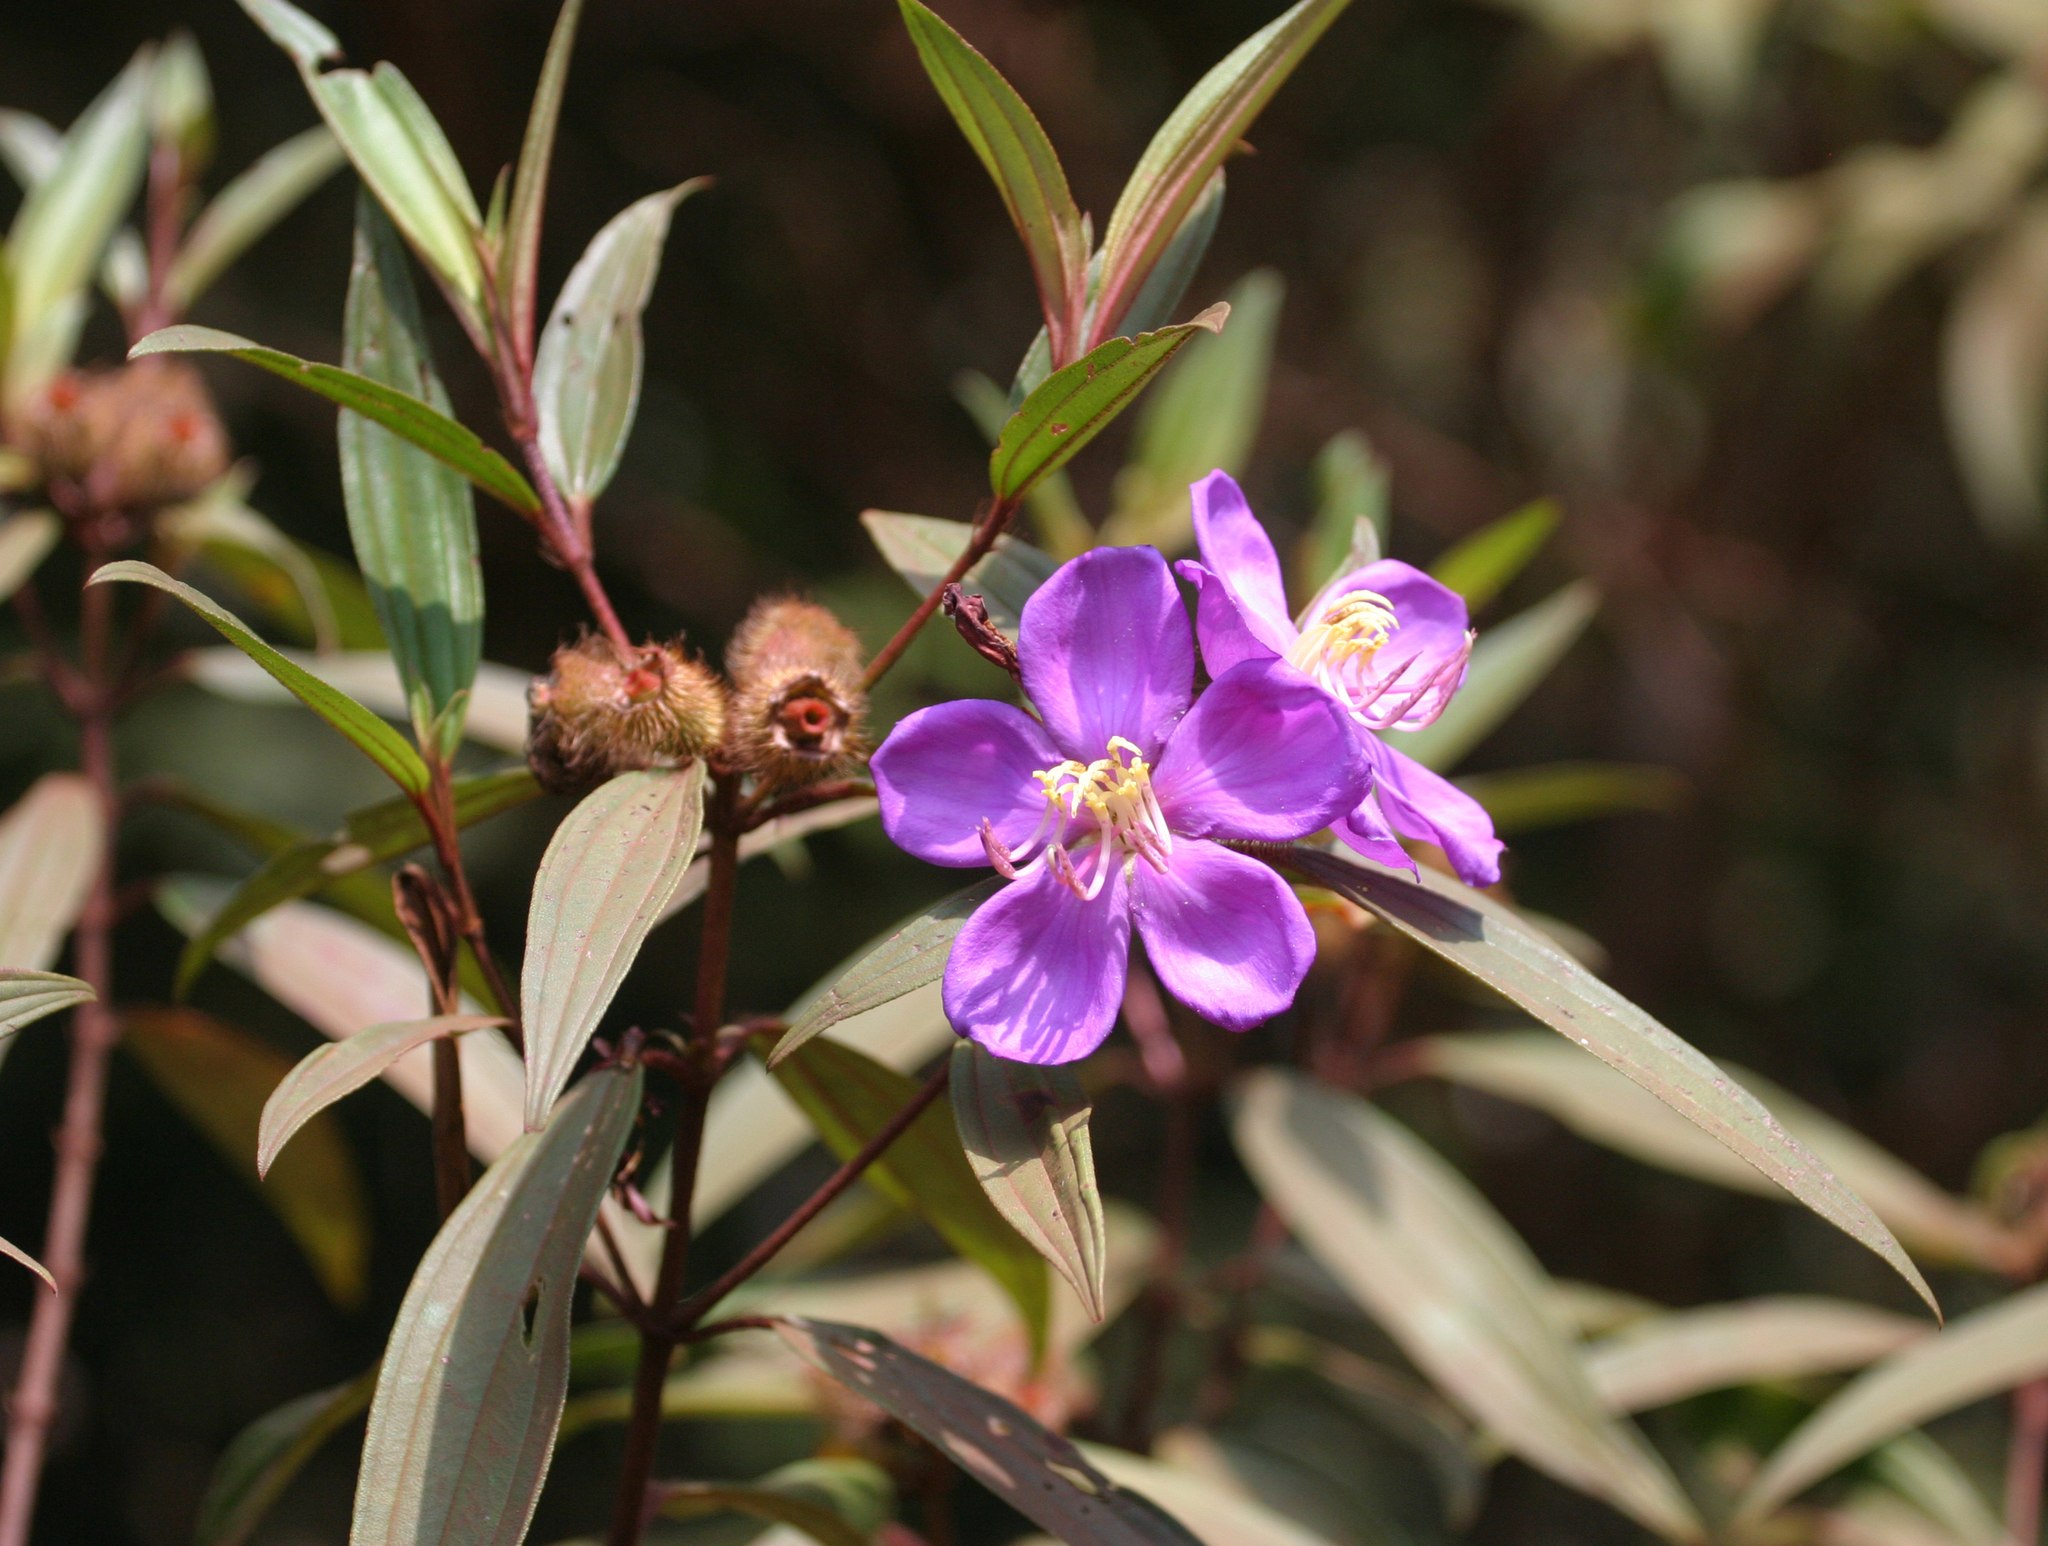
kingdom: Plantae
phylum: Tracheophyta
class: Magnoliopsida
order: Myrtales
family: Melastomataceae
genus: Melastoma
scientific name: Melastoma saigonense
